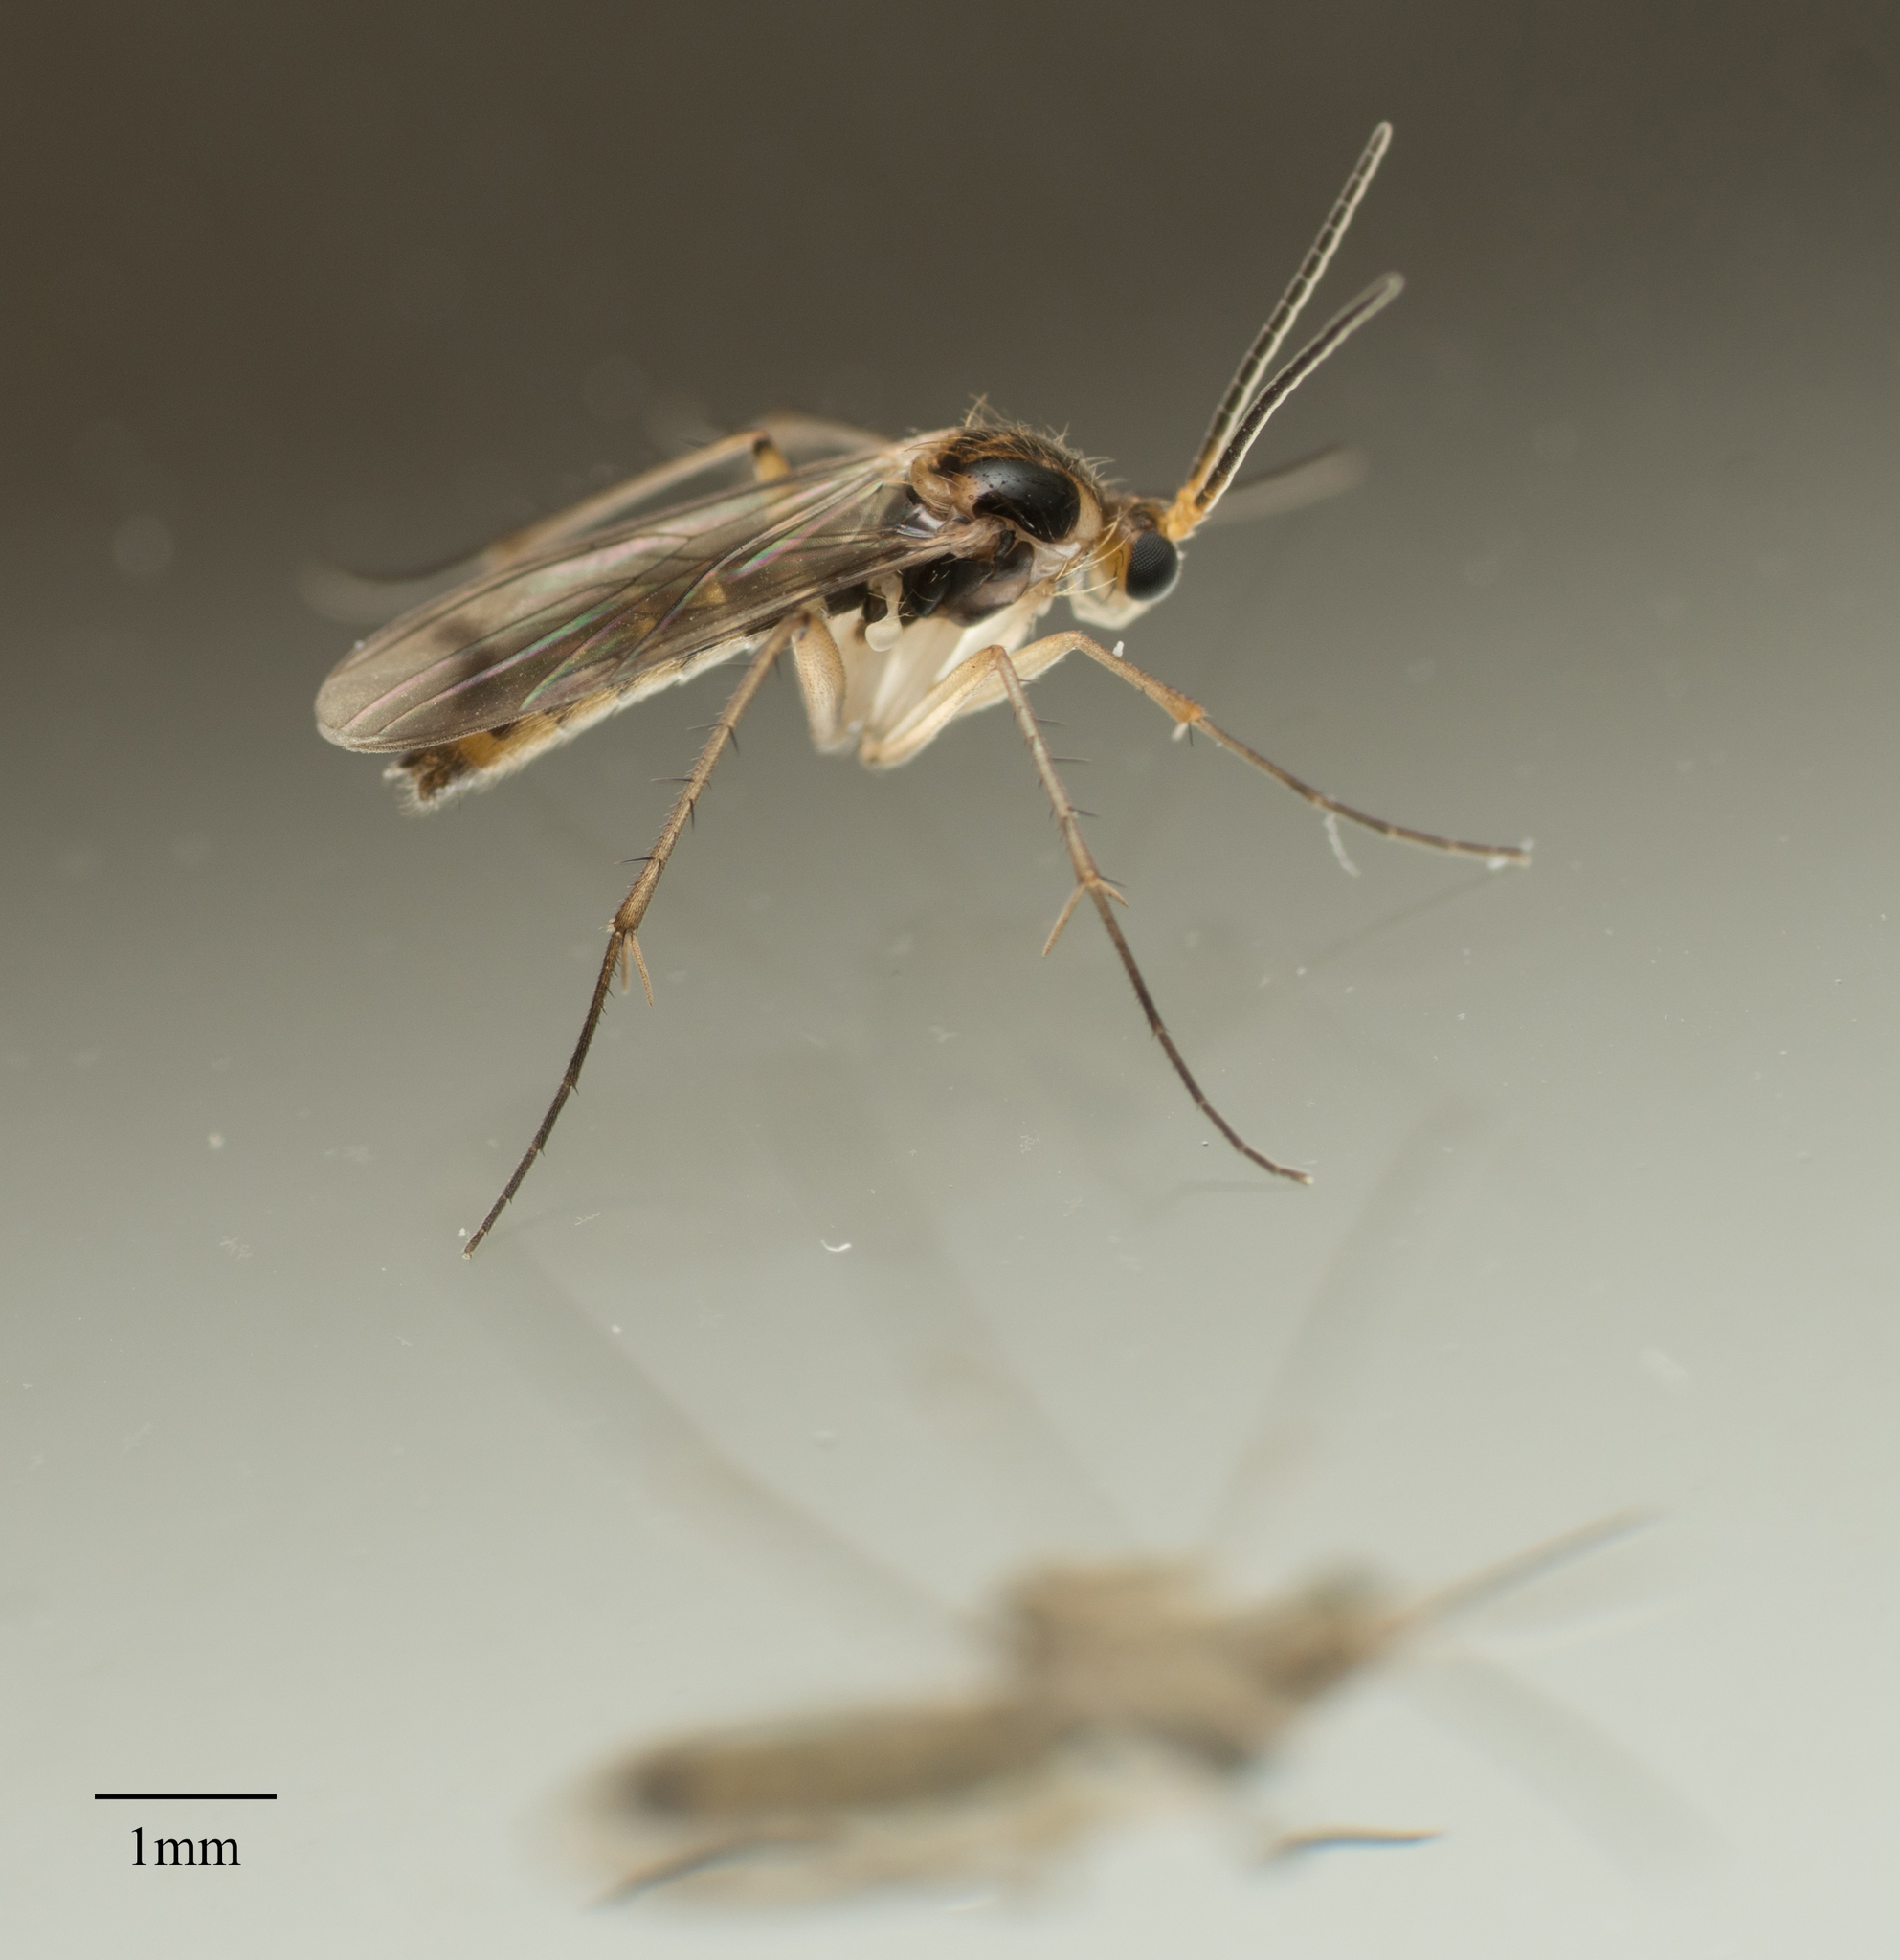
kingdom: Animalia
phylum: Arthropoda
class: Insecta
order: Diptera
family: Mycetophilidae
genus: Leia
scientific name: Leia varia
